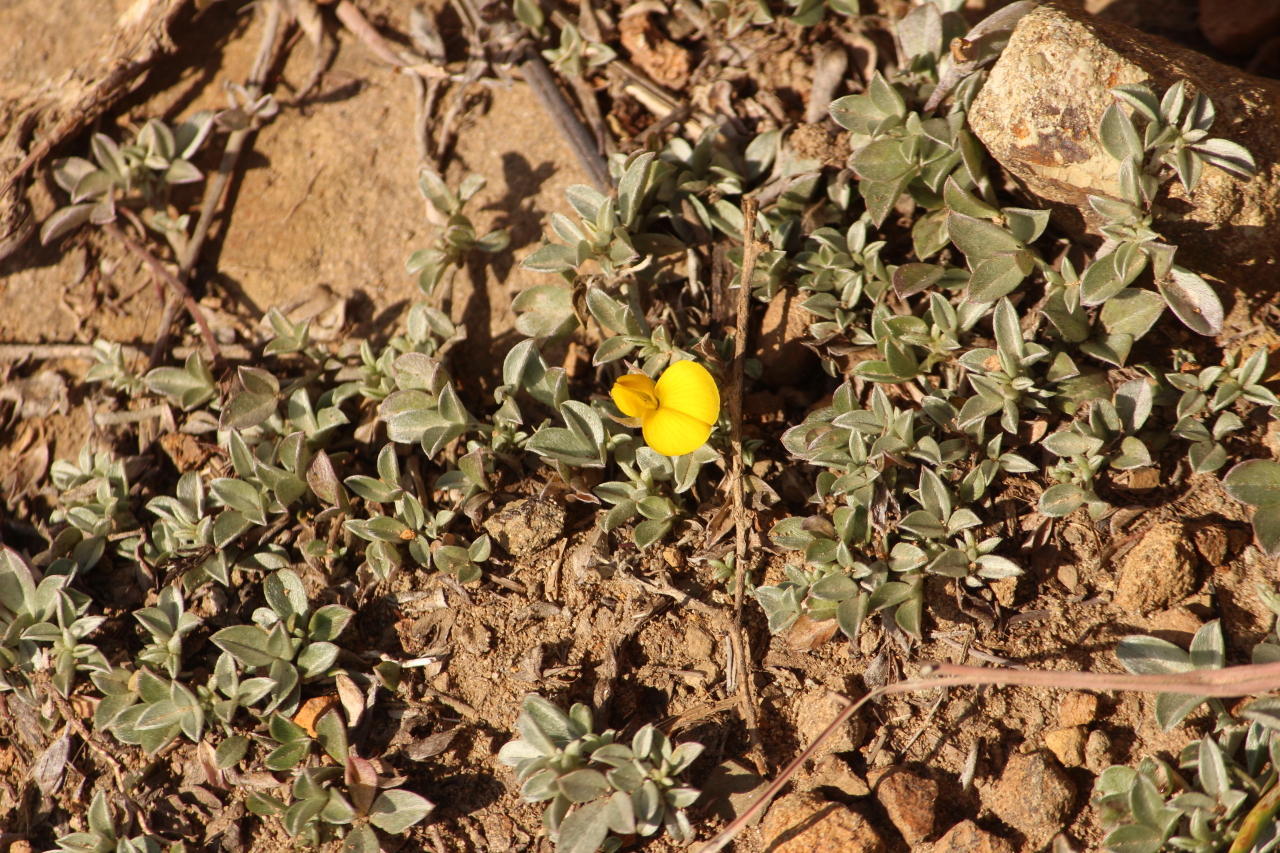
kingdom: Plantae
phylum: Tracheophyta
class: Magnoliopsida
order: Fabales
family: Fabaceae
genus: Lotononis
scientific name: Lotononis laxa
